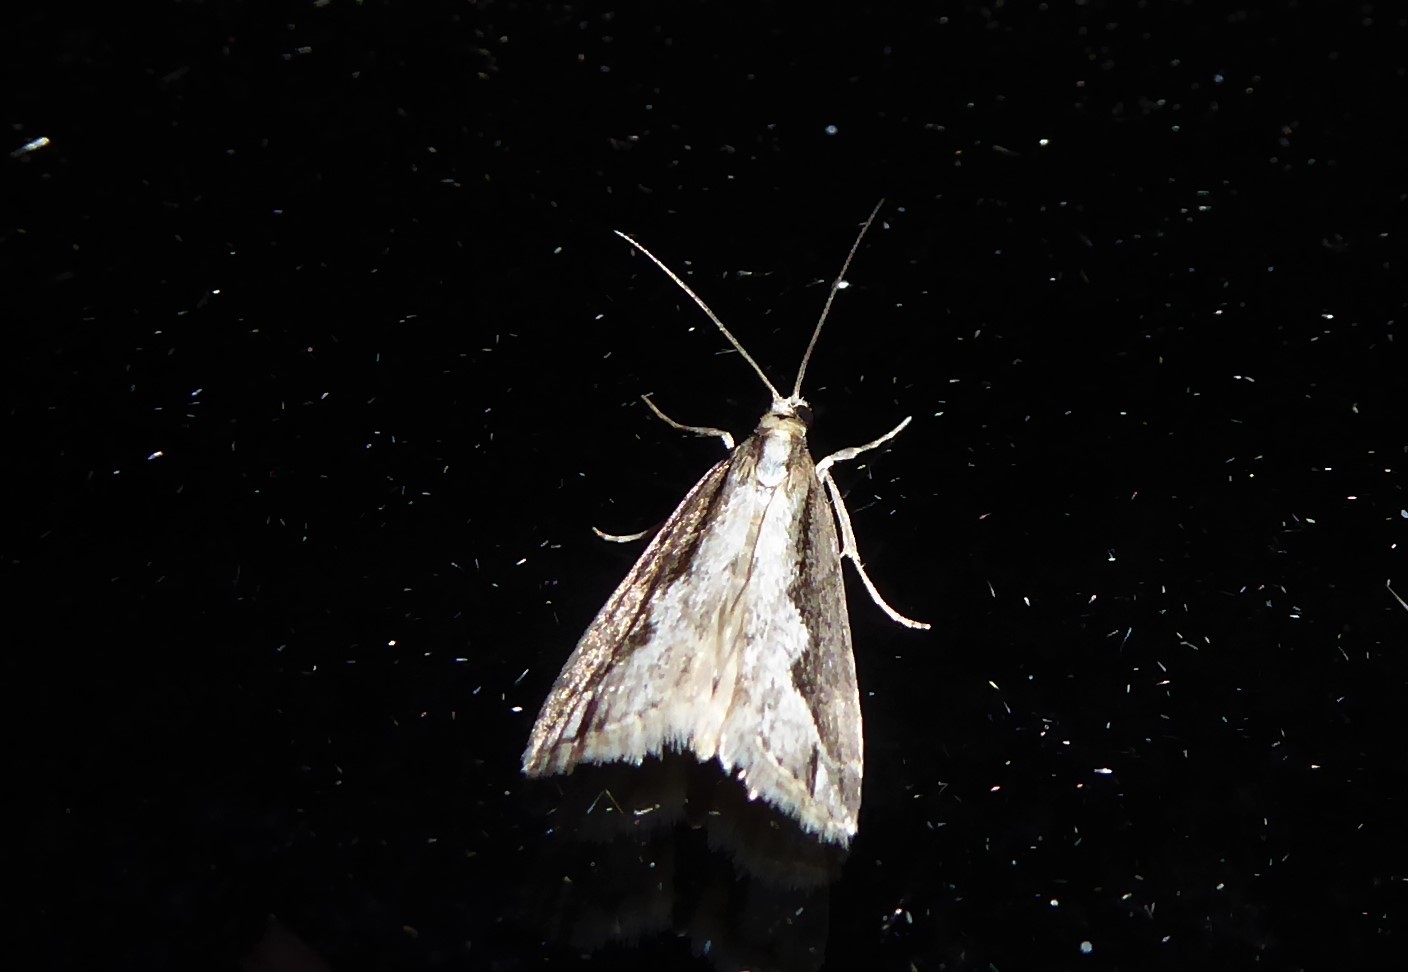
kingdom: Animalia
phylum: Arthropoda
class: Insecta
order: Lepidoptera
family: Crambidae
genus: Eudonia
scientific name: Eudonia steropaea
